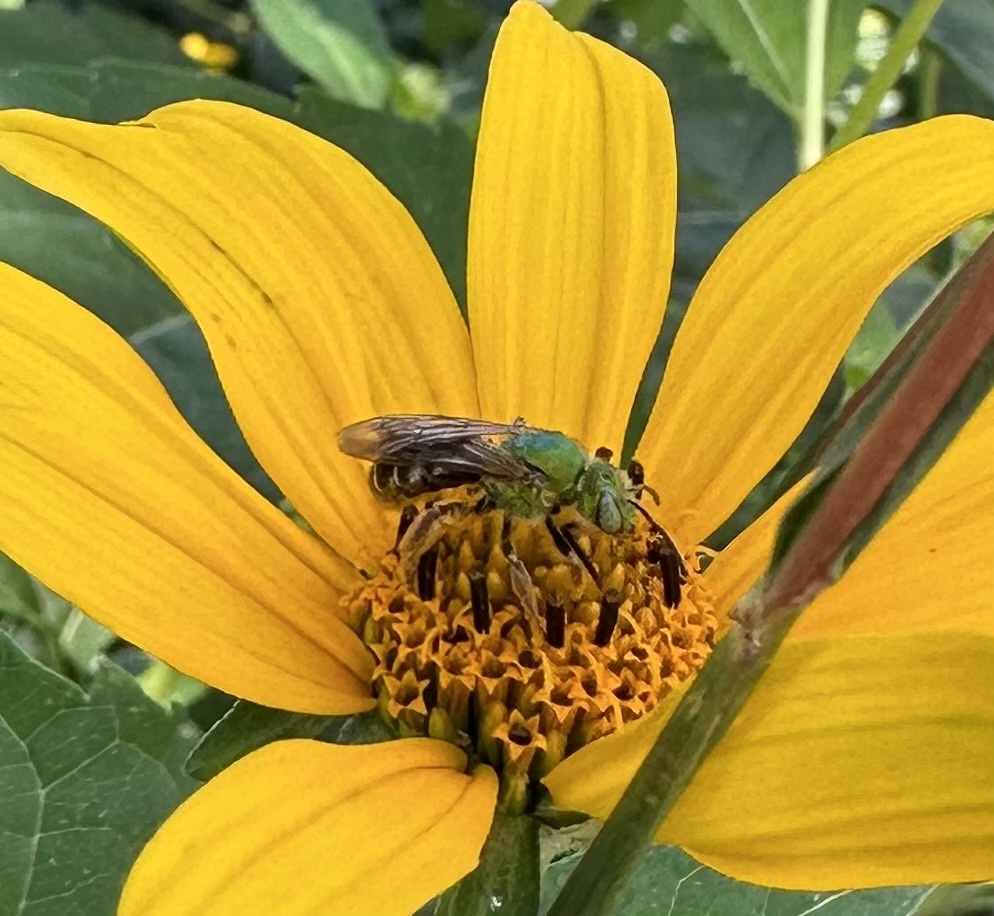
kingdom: Animalia
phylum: Arthropoda
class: Insecta
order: Hymenoptera
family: Halictidae
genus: Agapostemon
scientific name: Agapostemon virescens
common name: Bicolored striped sweat bee
